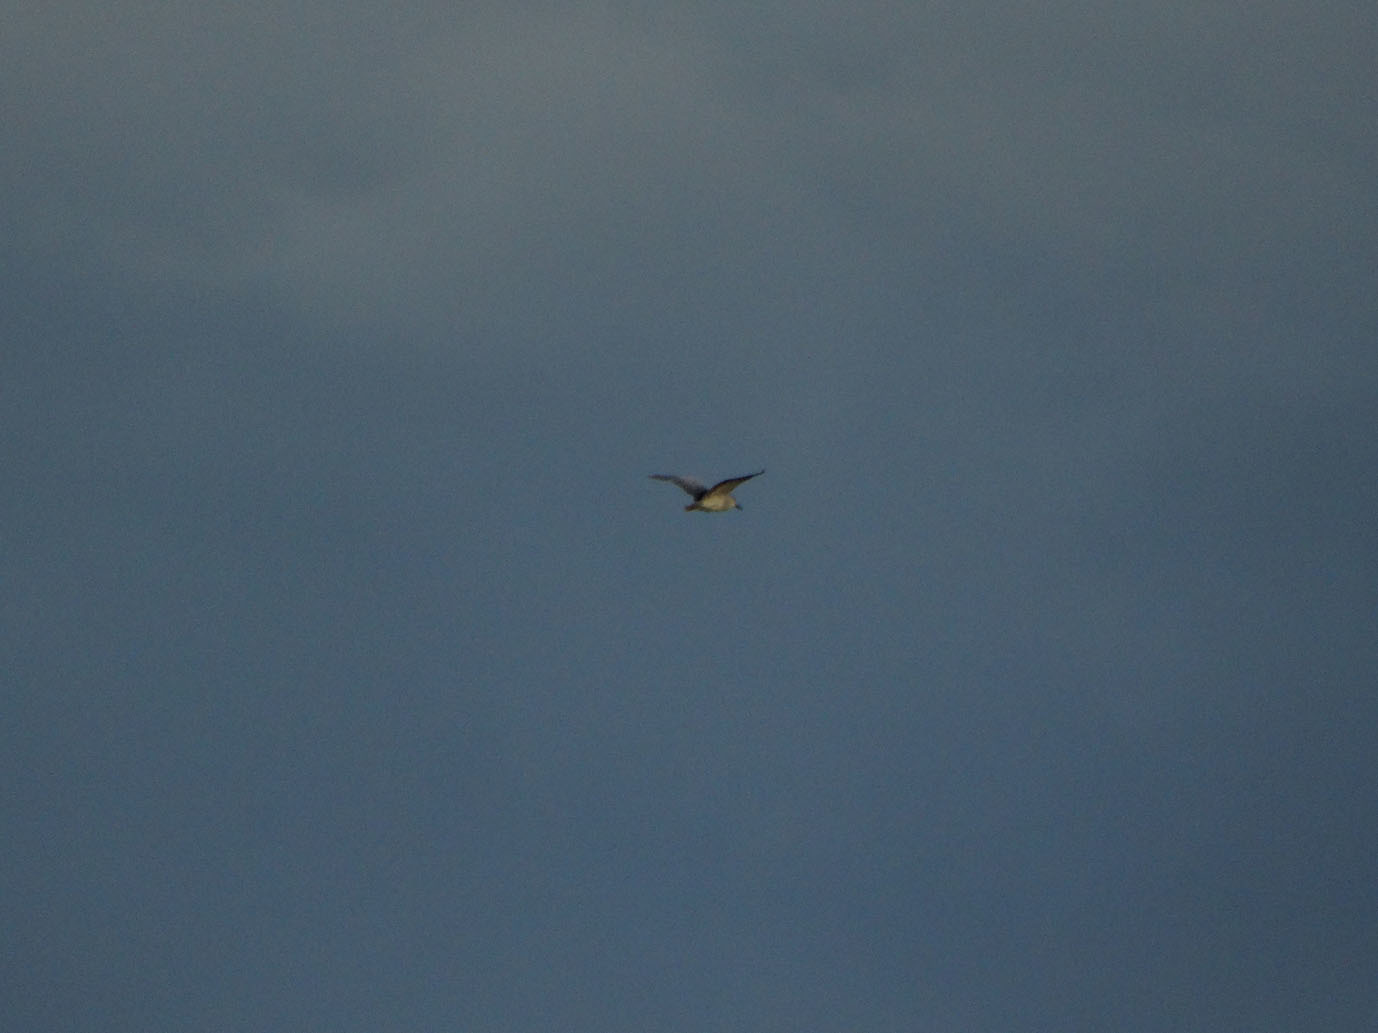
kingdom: Animalia
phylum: Chordata
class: Aves
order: Pelecaniformes
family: Ardeidae
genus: Nycticorax
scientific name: Nycticorax nycticorax
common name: Black-crowned night heron
